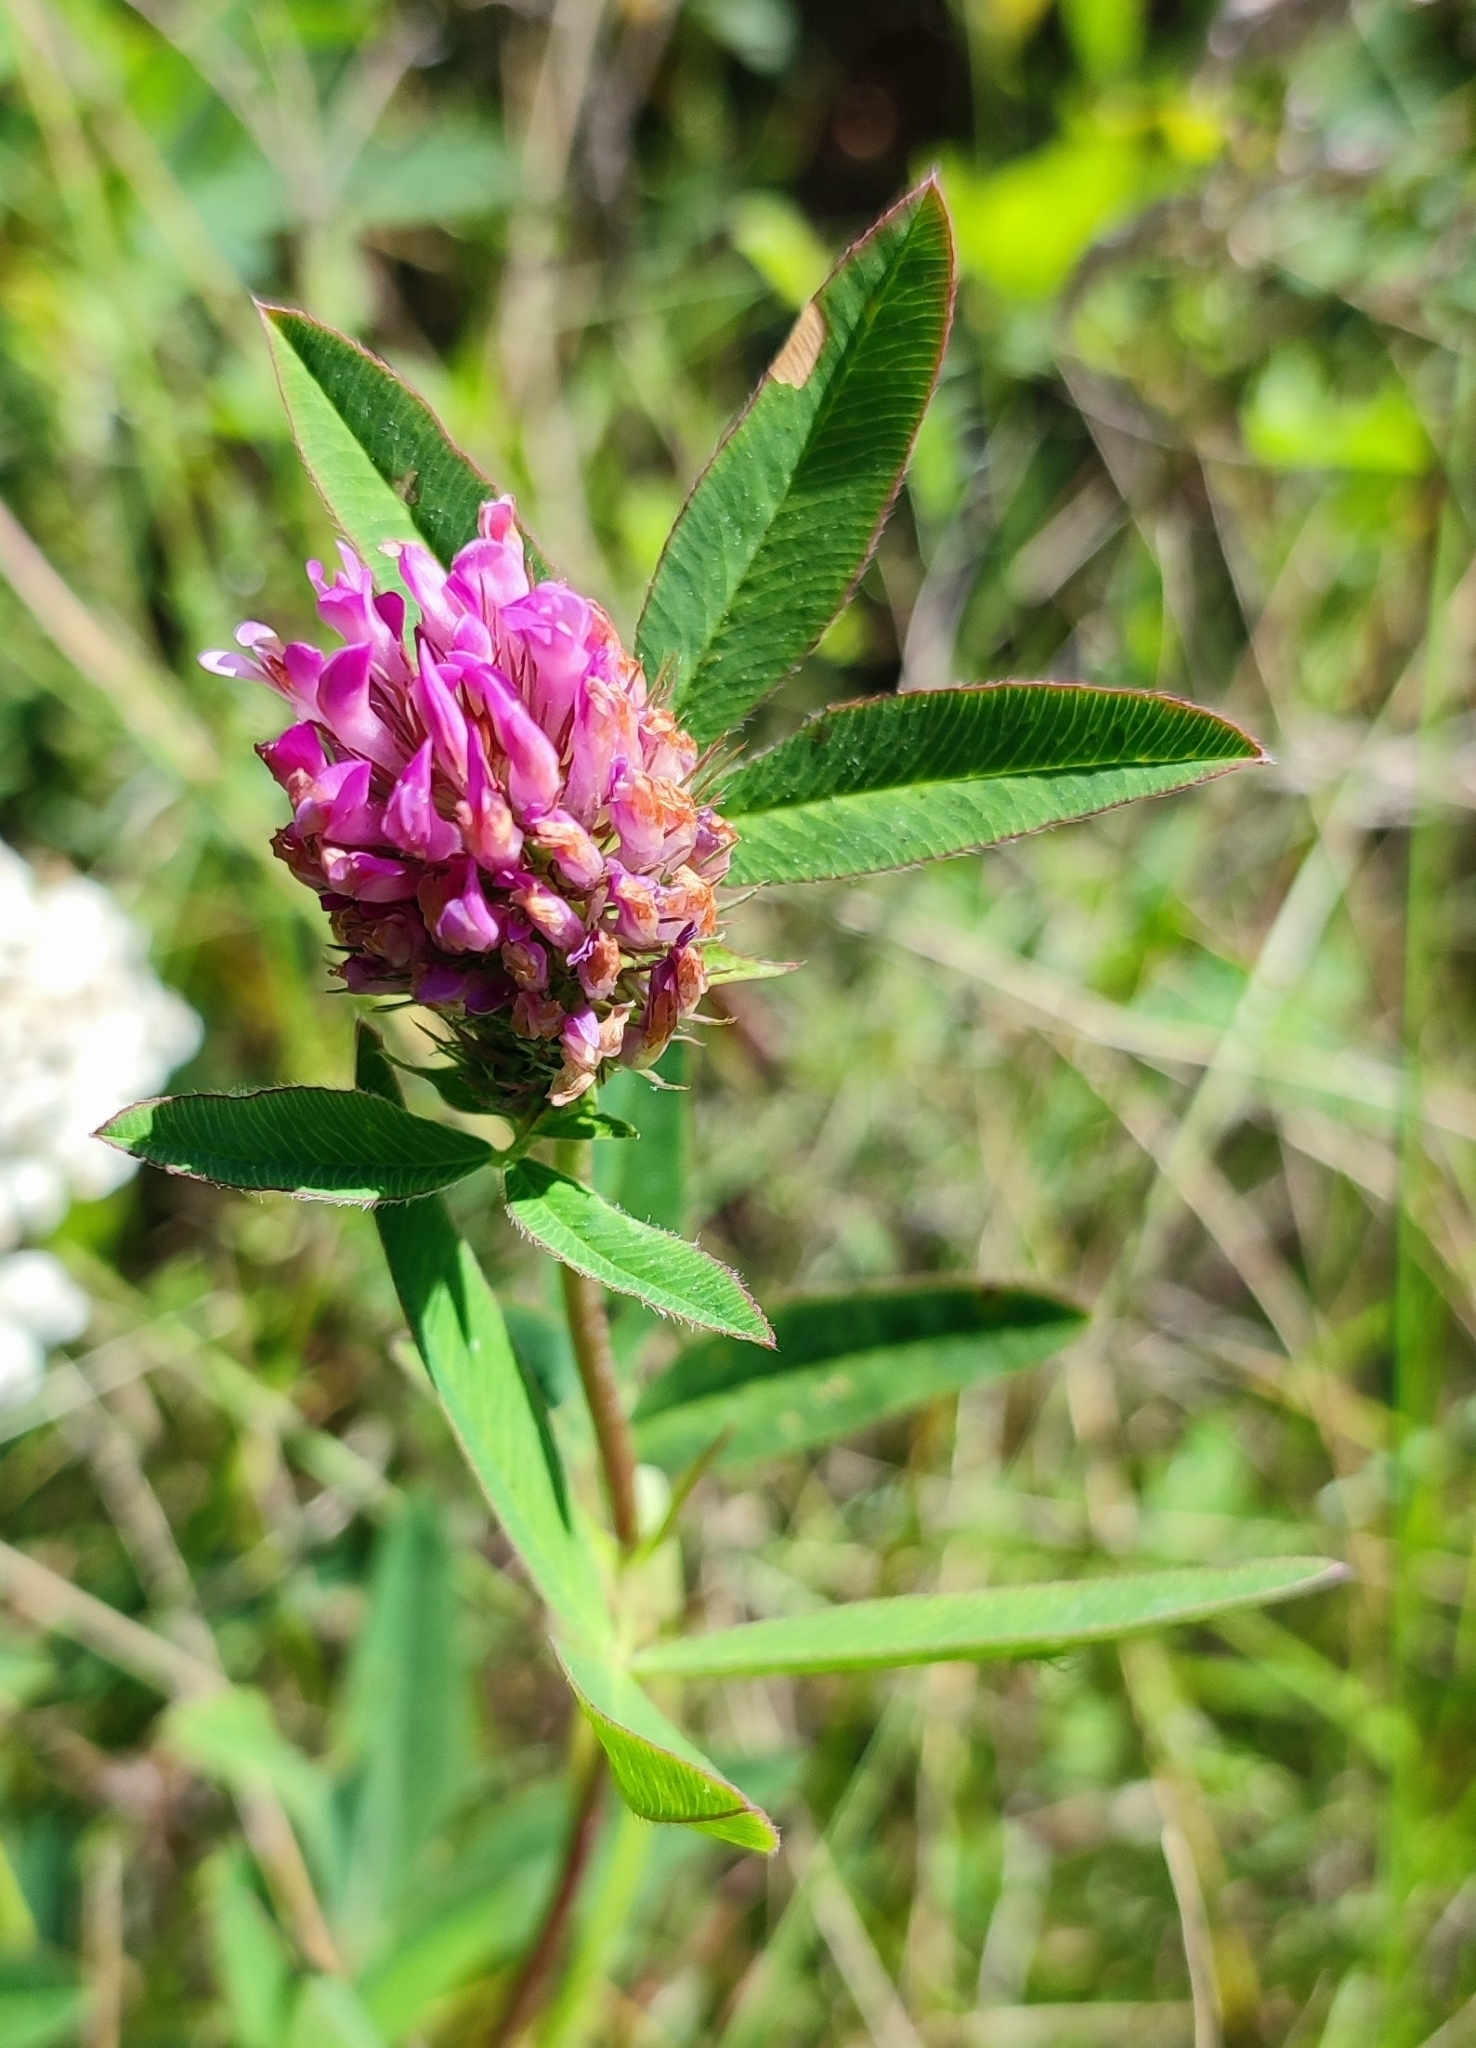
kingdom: Plantae
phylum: Tracheophyta
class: Magnoliopsida
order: Fabales
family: Fabaceae
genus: Trifolium
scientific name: Trifolium medium
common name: Zigzag clover
